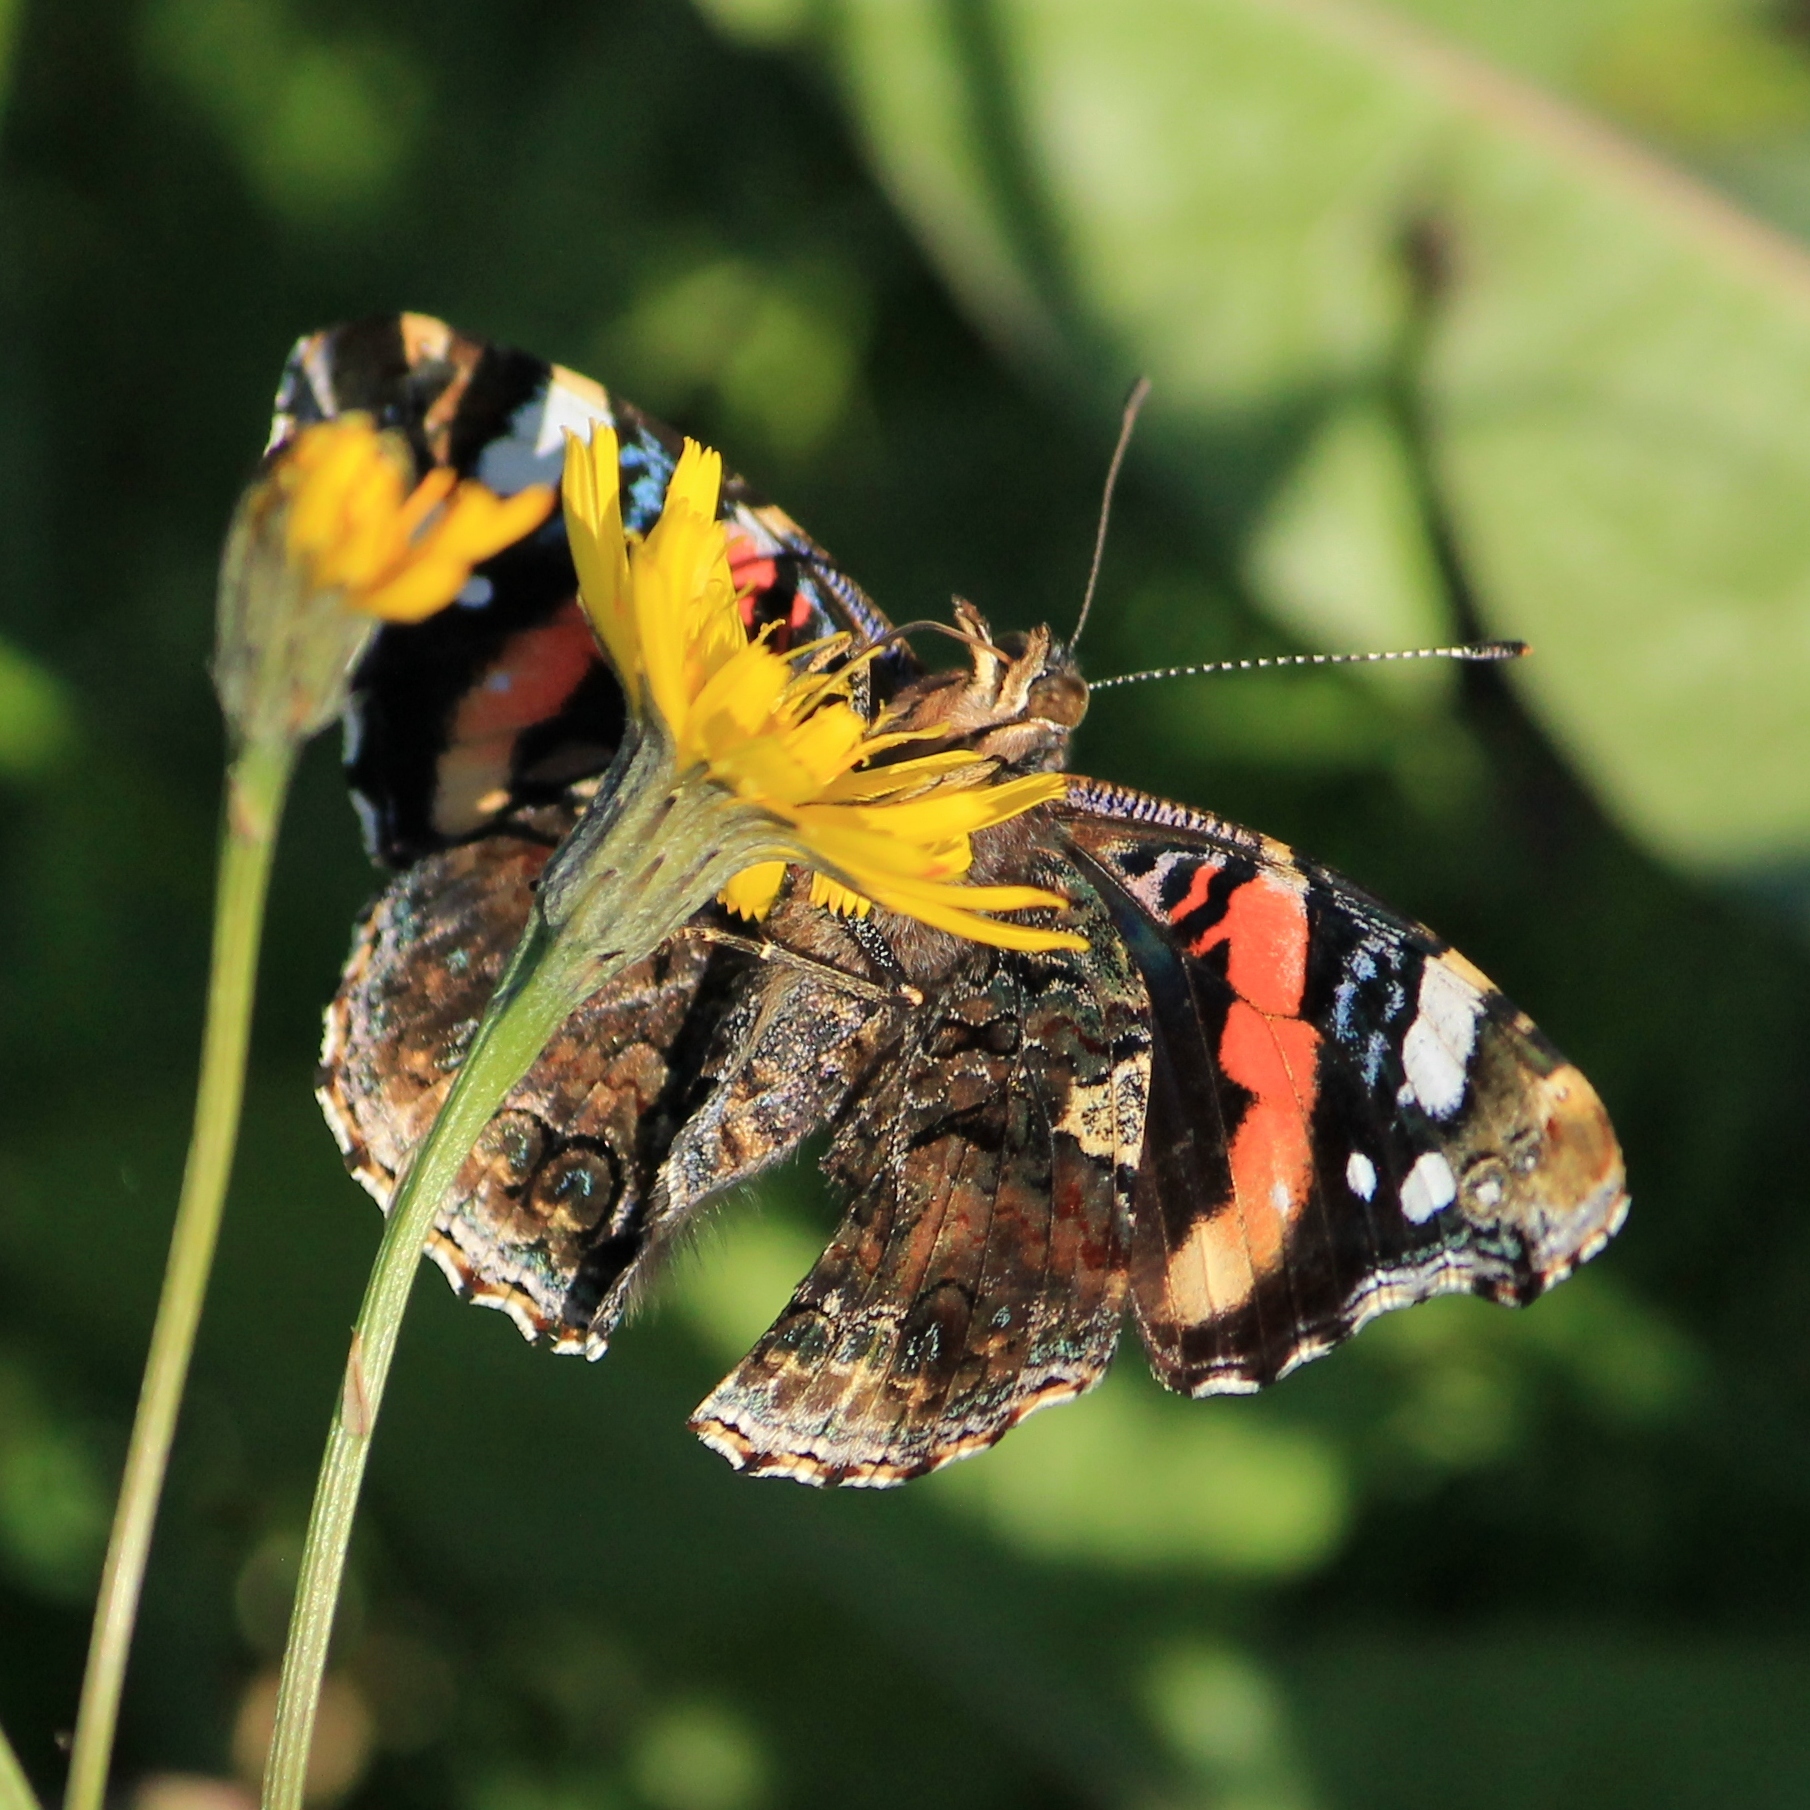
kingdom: Animalia
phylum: Arthropoda
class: Insecta
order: Lepidoptera
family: Nymphalidae
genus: Vanessa
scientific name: Vanessa atalanta
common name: Red admiral
